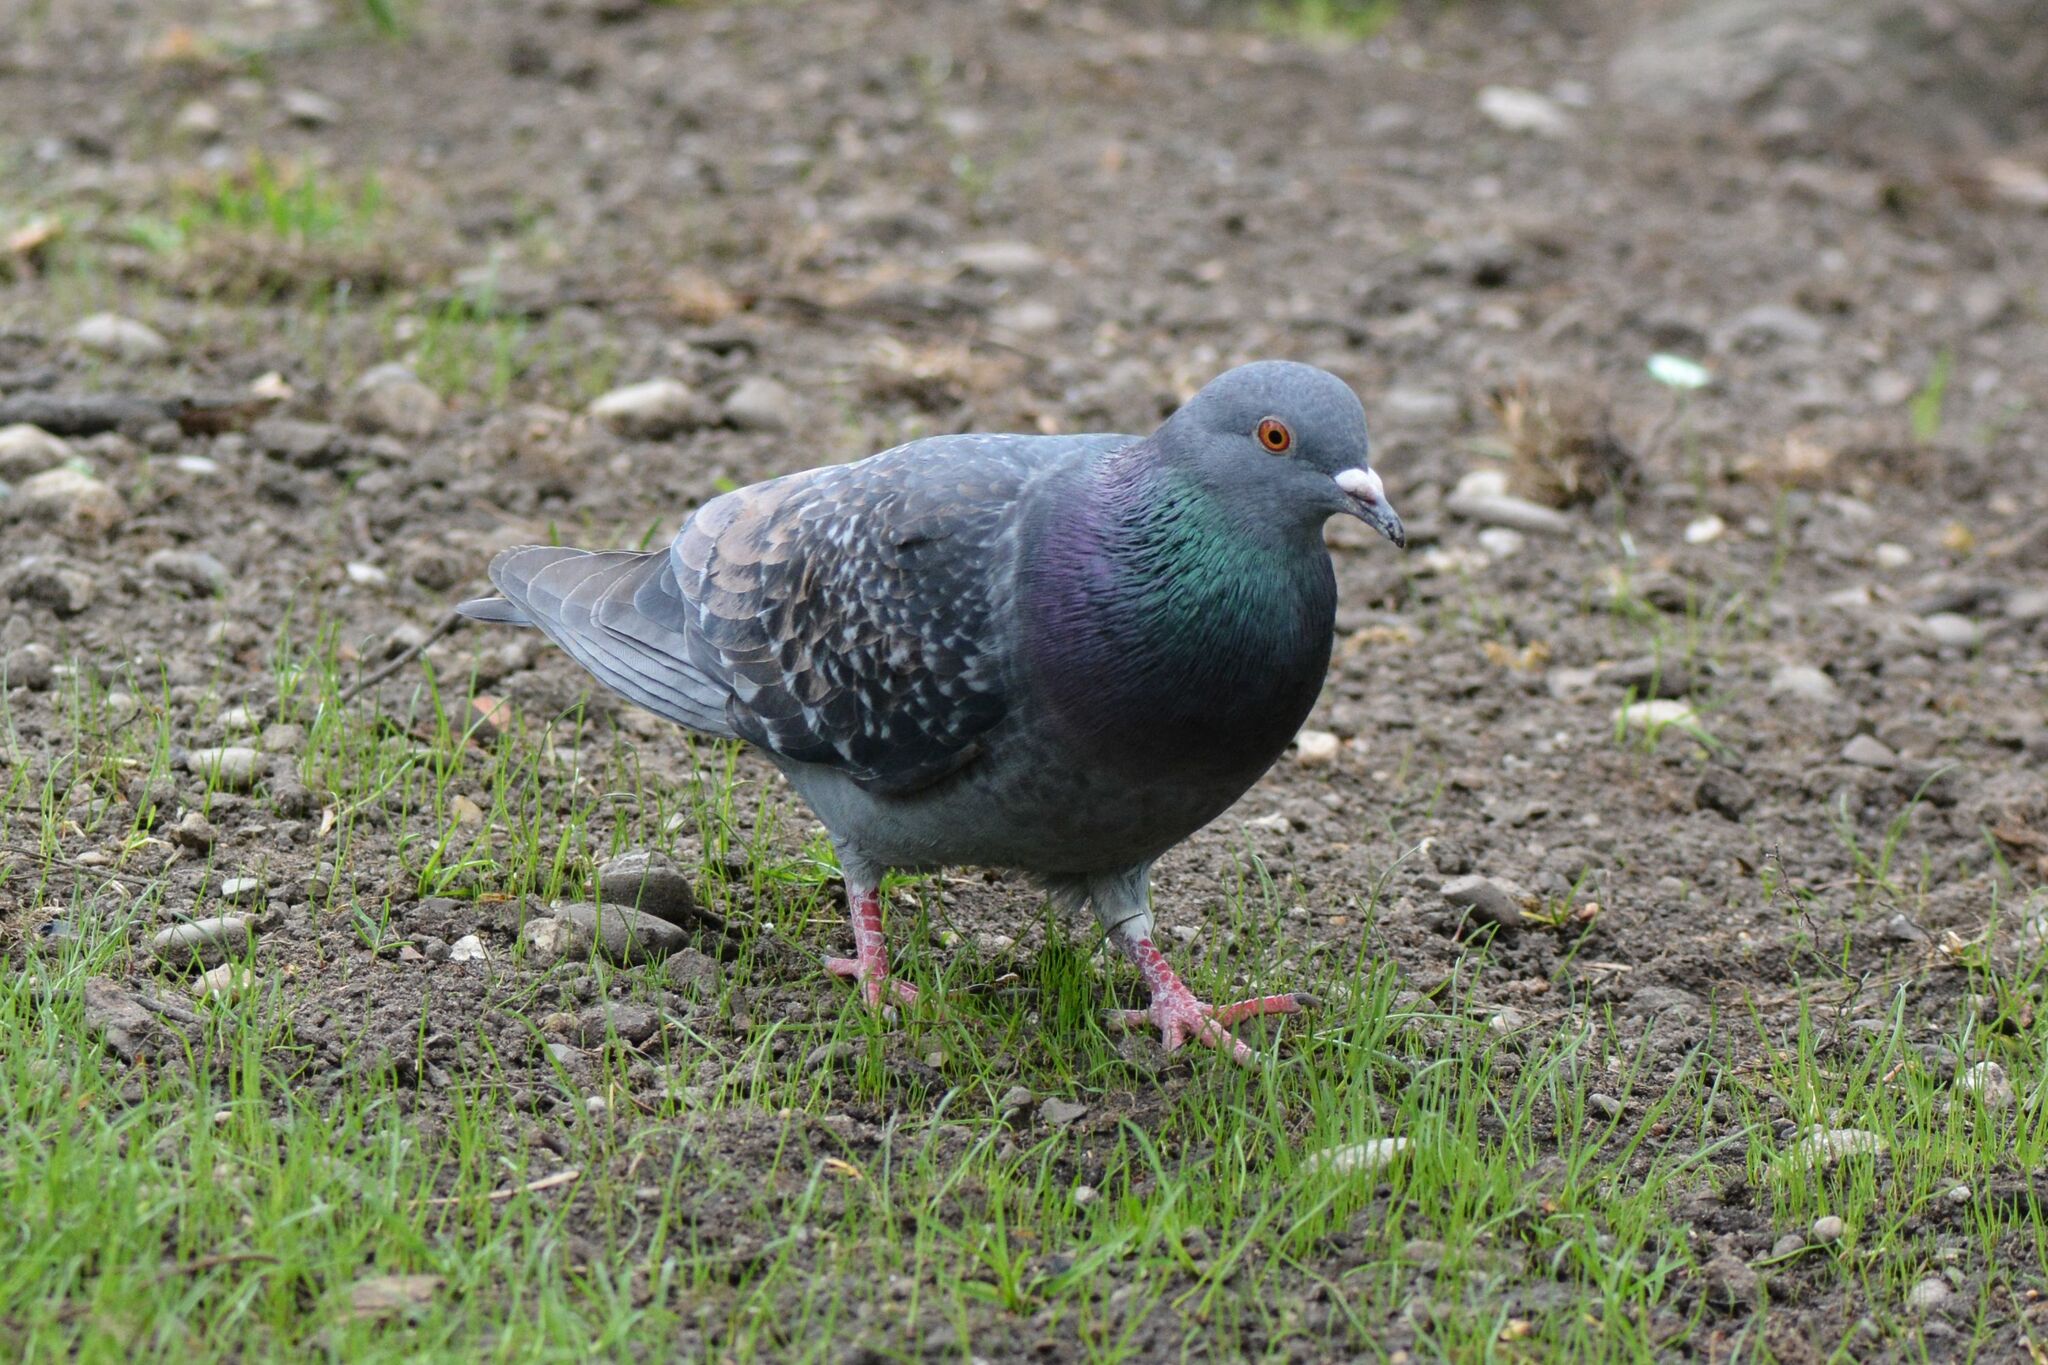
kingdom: Animalia
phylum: Chordata
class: Aves
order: Columbiformes
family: Columbidae
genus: Columba
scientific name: Columba livia
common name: Rock pigeon
